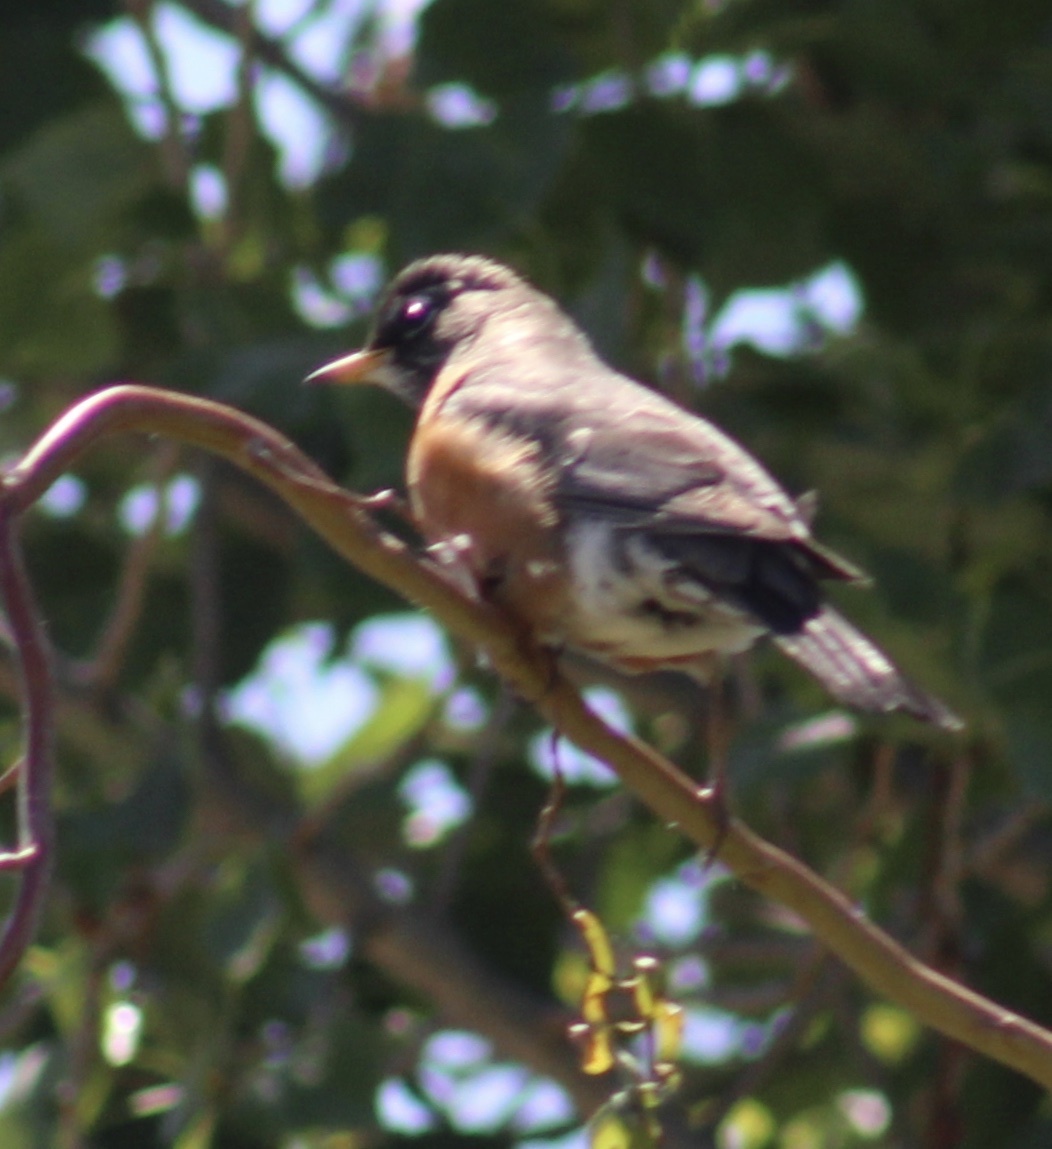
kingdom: Animalia
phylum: Chordata
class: Aves
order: Passeriformes
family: Turdidae
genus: Turdus
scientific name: Turdus migratorius
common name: American robin
